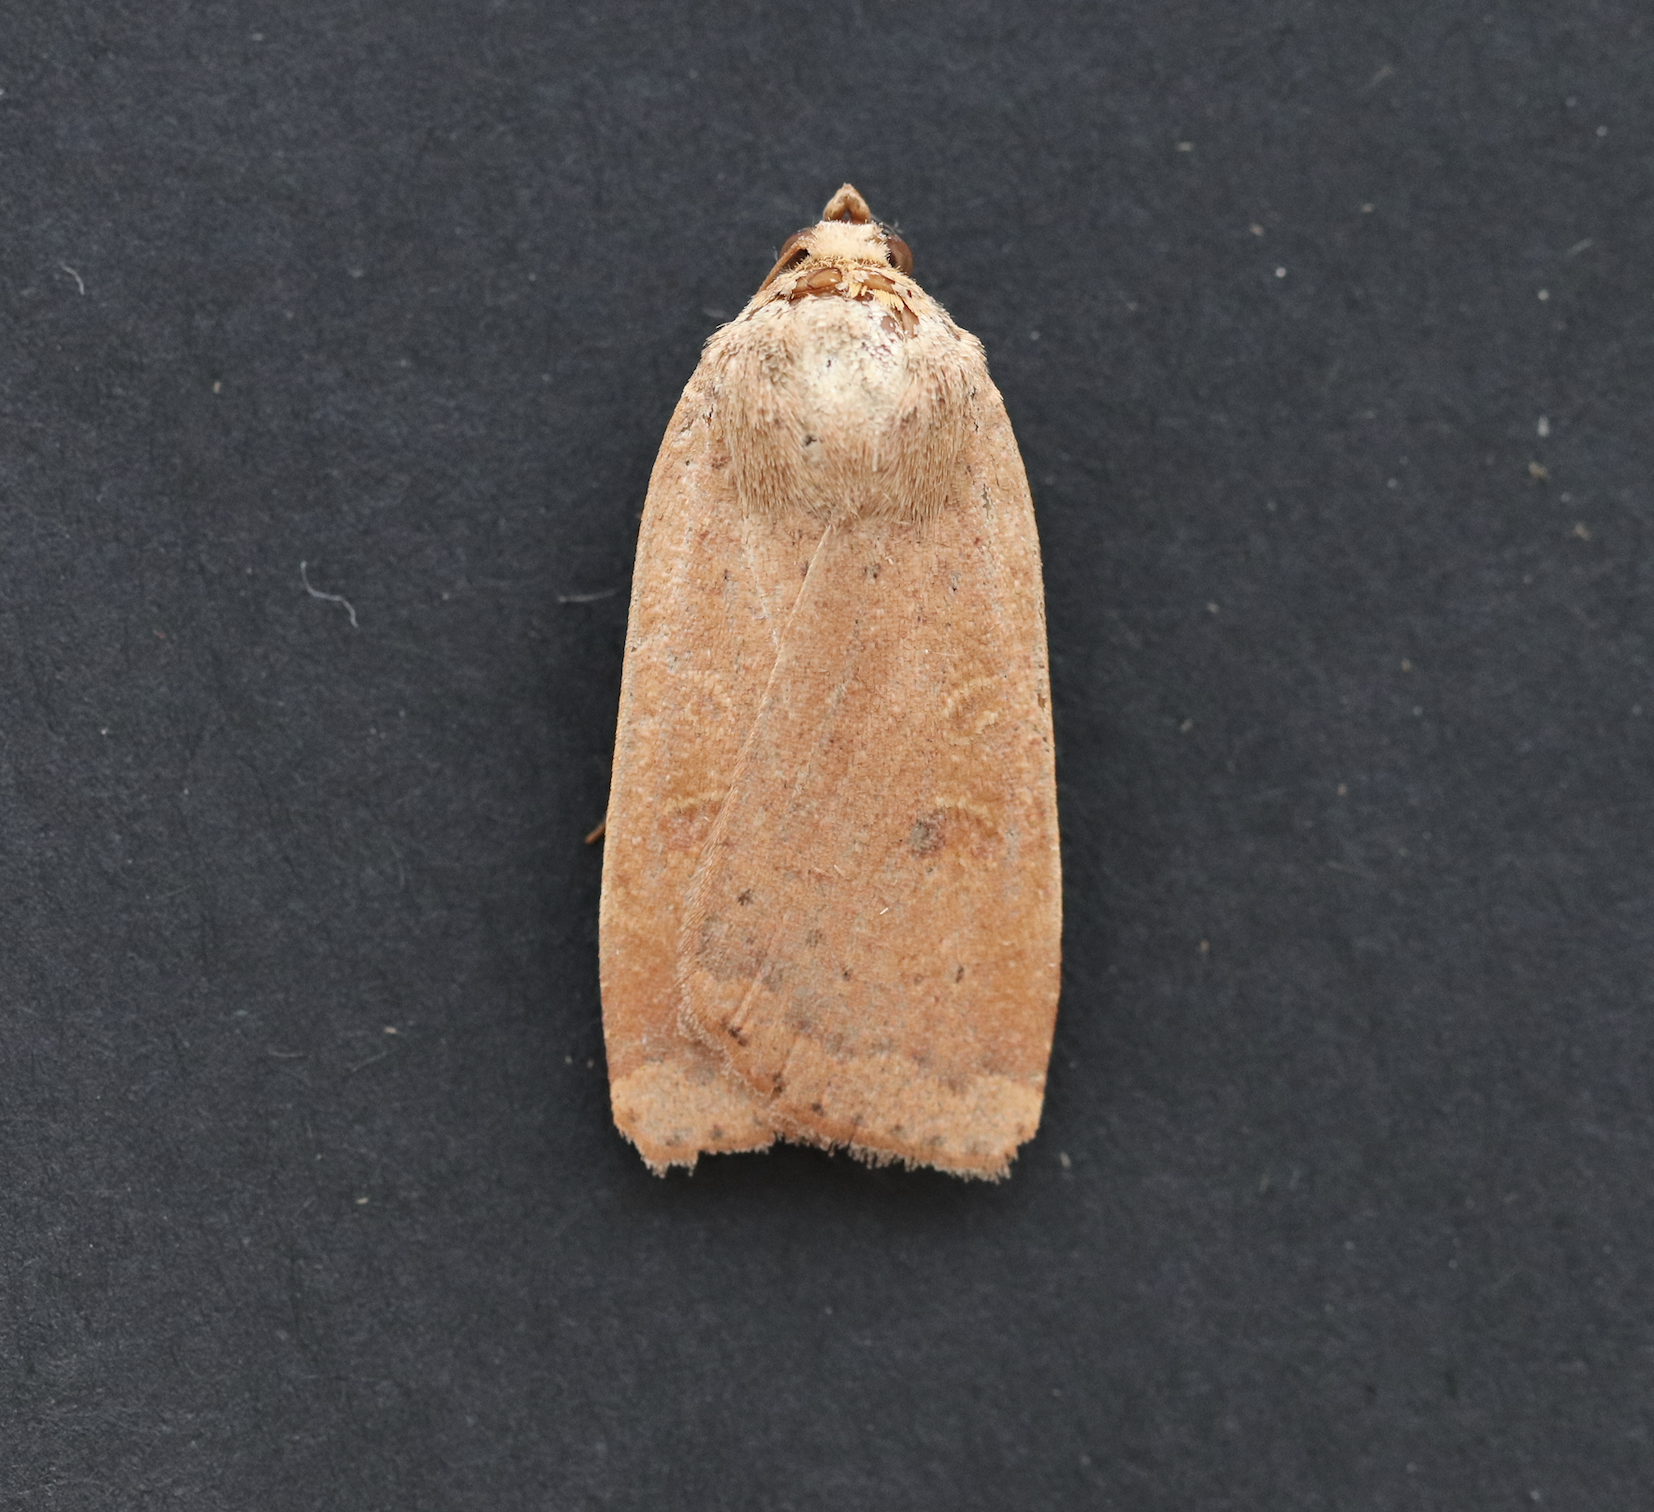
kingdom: Animalia
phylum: Arthropoda
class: Insecta
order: Lepidoptera
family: Noctuidae
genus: Noctua
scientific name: Noctua comes
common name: Lesser yellow underwing
